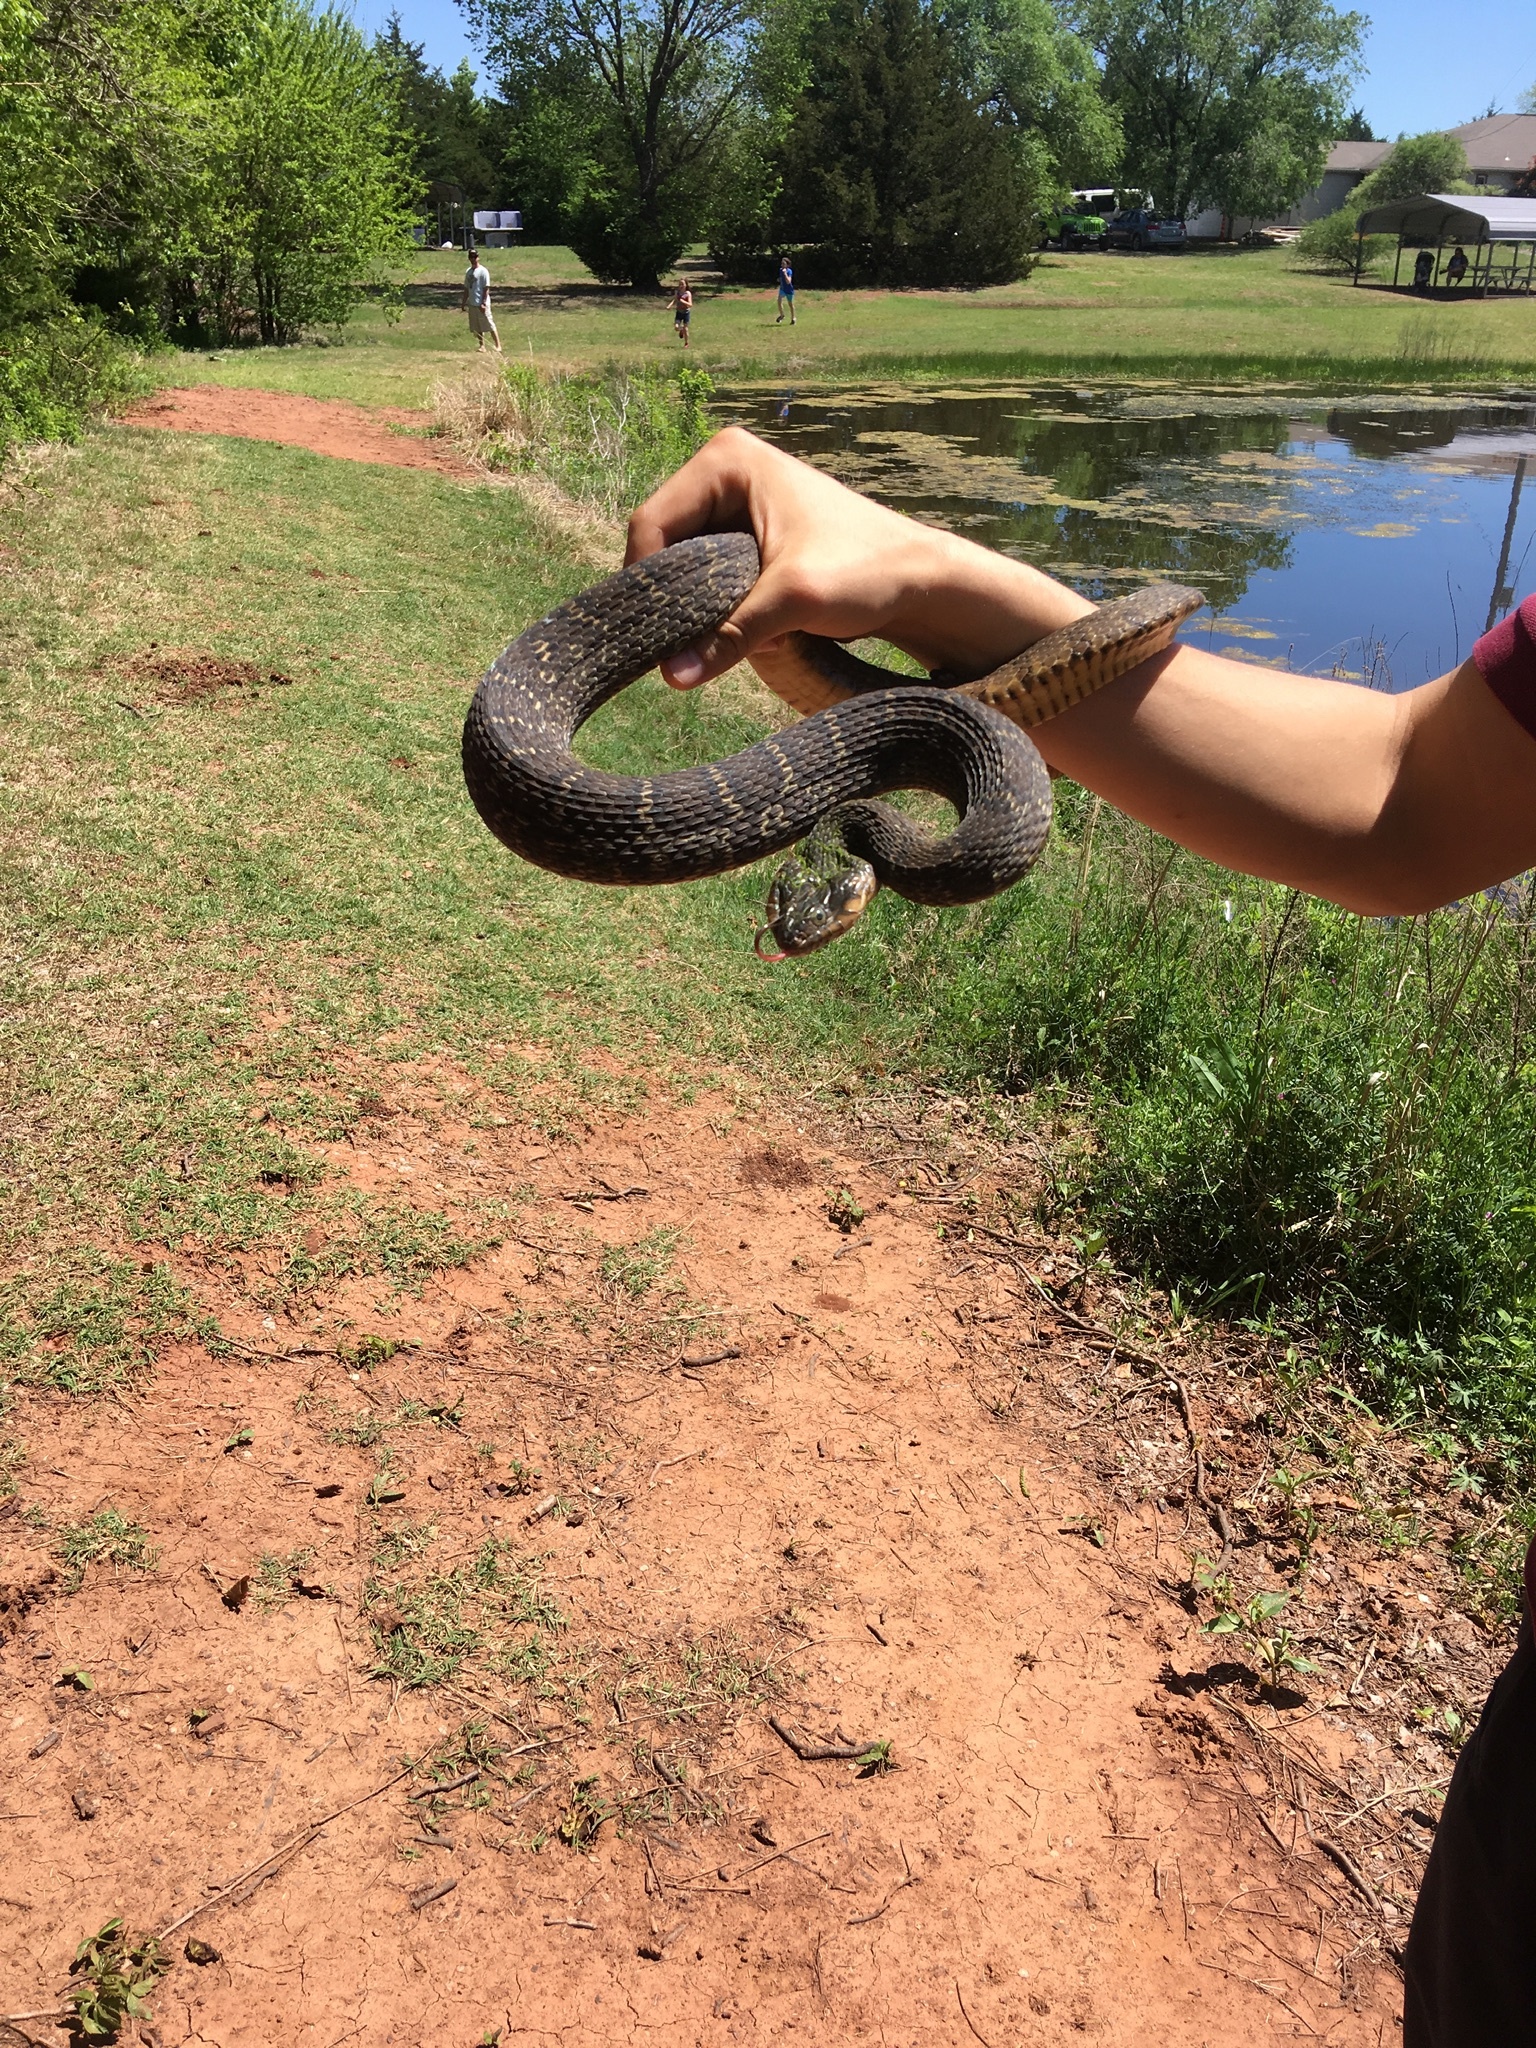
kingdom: Animalia
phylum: Chordata
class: Squamata
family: Colubridae
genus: Nerodia
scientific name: Nerodia erythrogaster
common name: Plainbelly water snake
